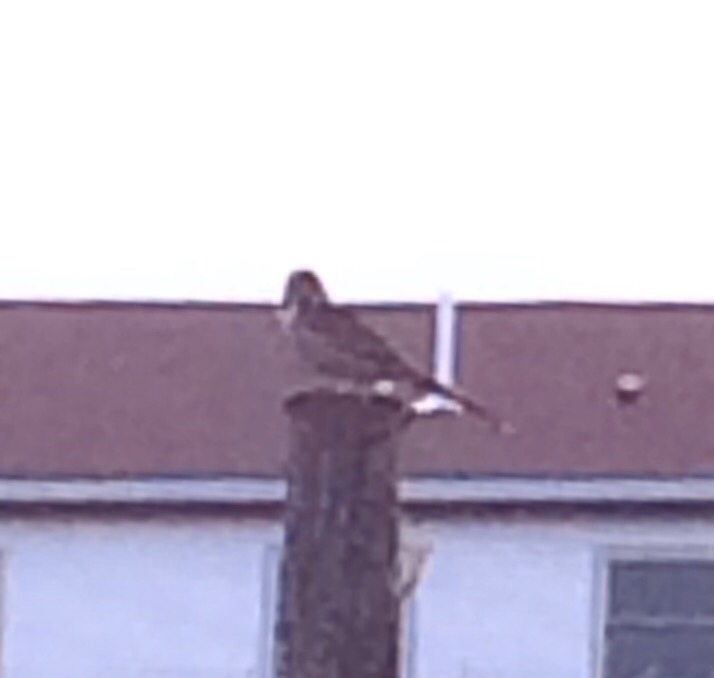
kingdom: Animalia
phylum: Chordata
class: Aves
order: Passeriformes
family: Passerellidae
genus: Melospiza
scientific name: Melospiza melodia
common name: Song sparrow
